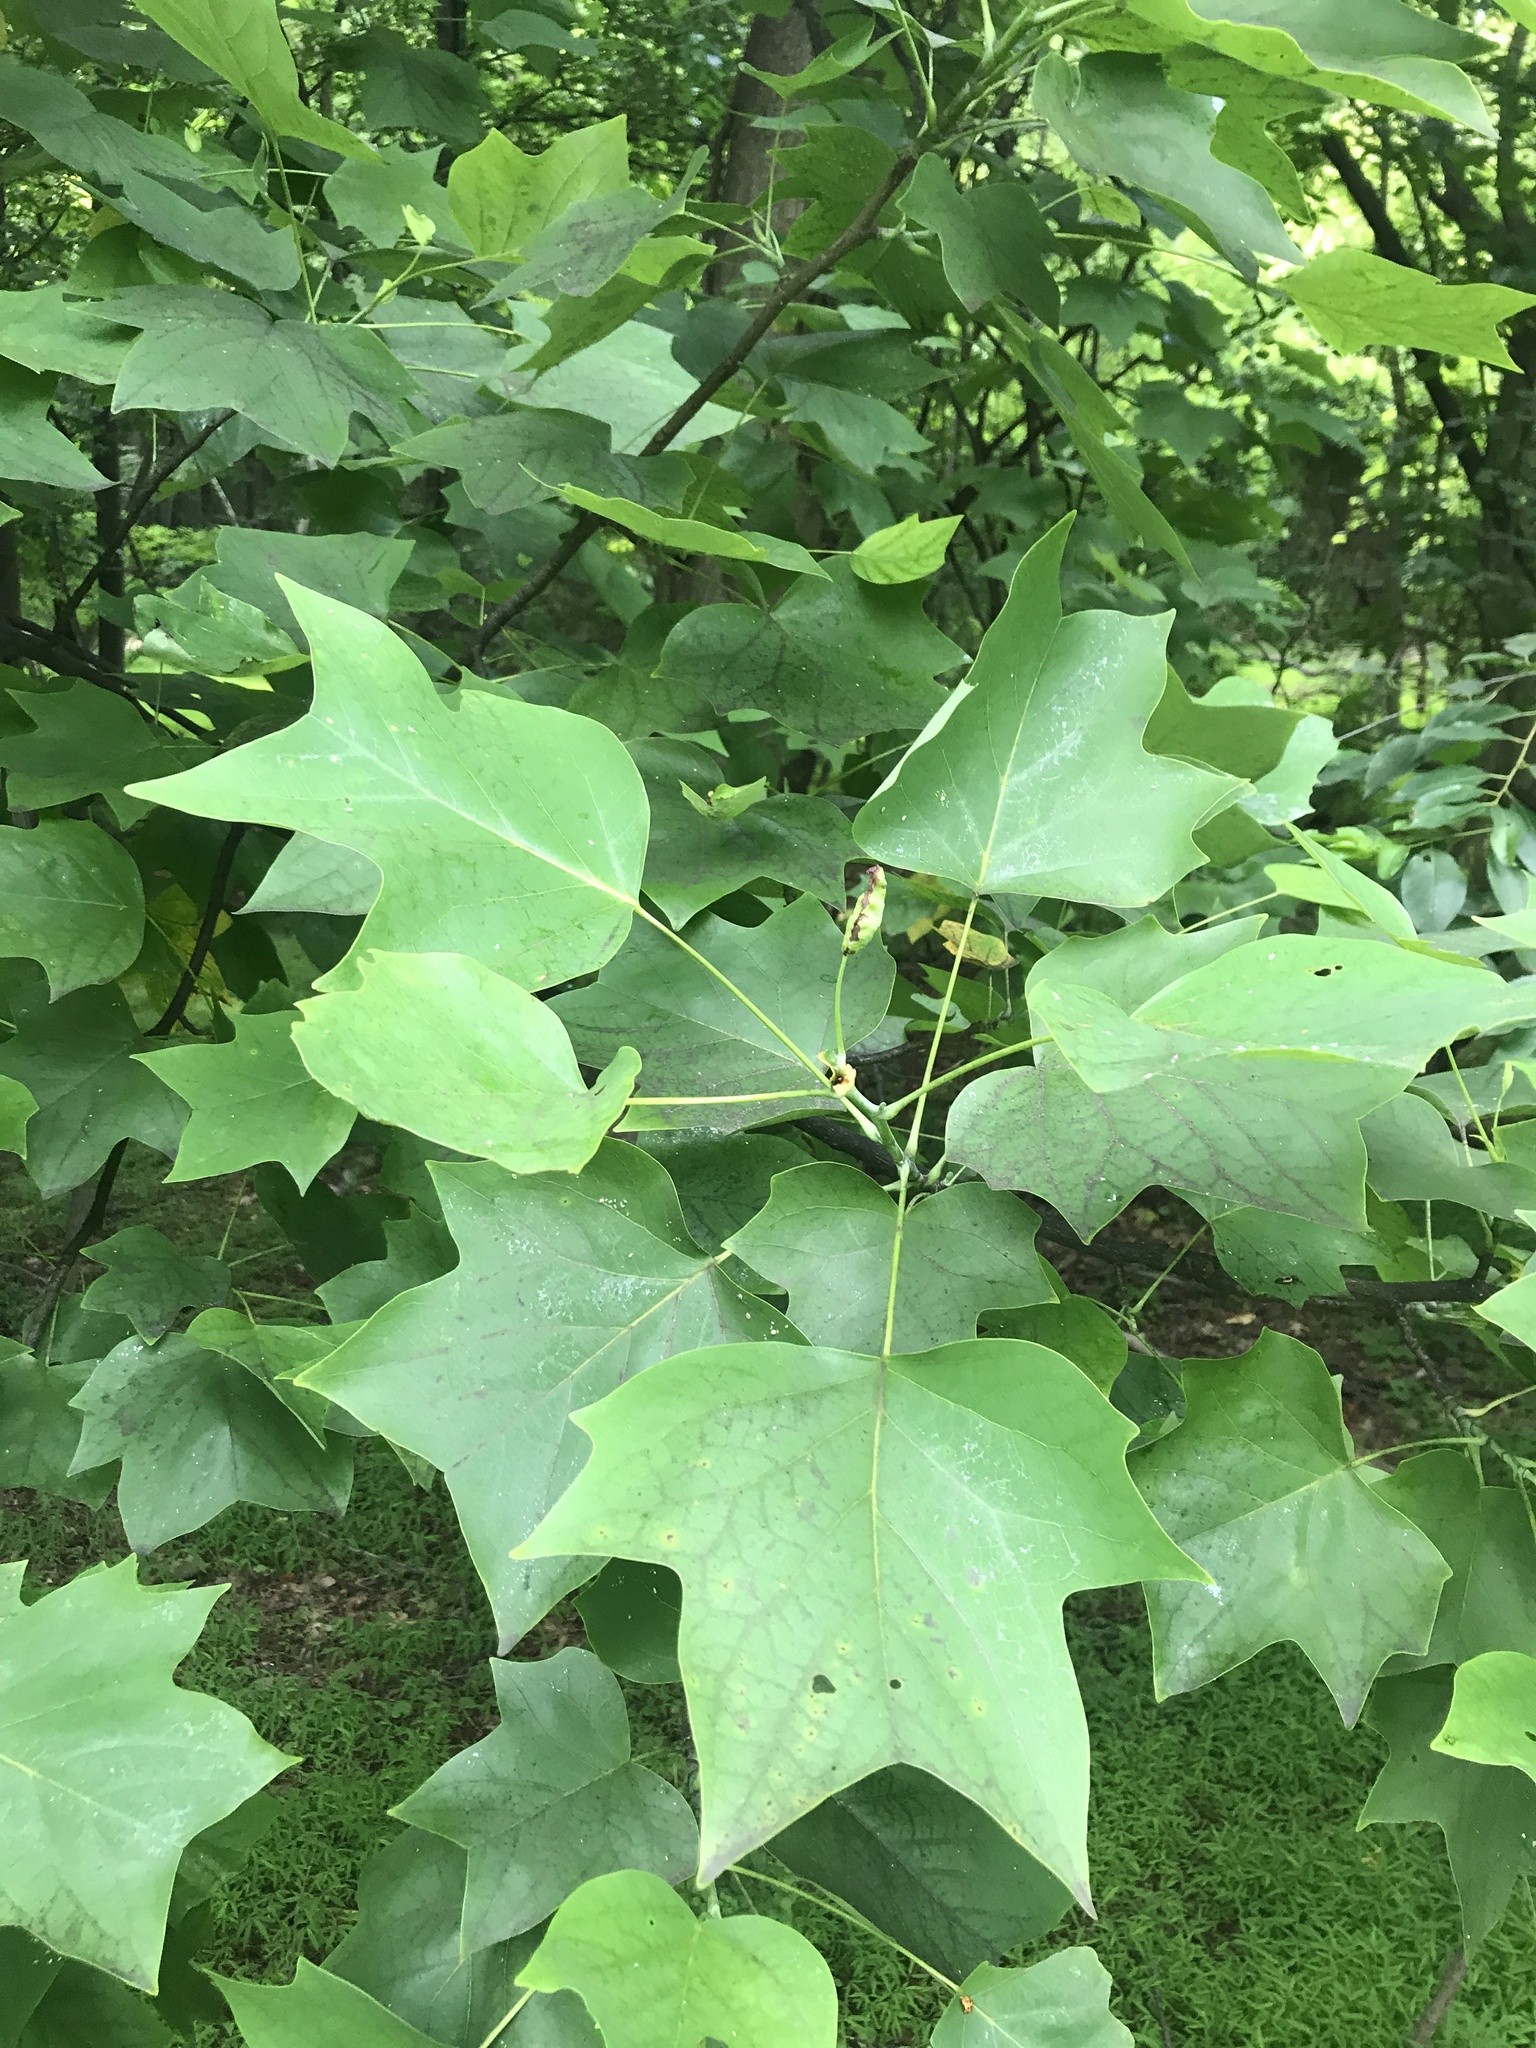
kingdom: Plantae
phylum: Tracheophyta
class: Magnoliopsida
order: Magnoliales
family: Magnoliaceae
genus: Liriodendron
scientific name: Liriodendron tulipifera
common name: Tulip tree
